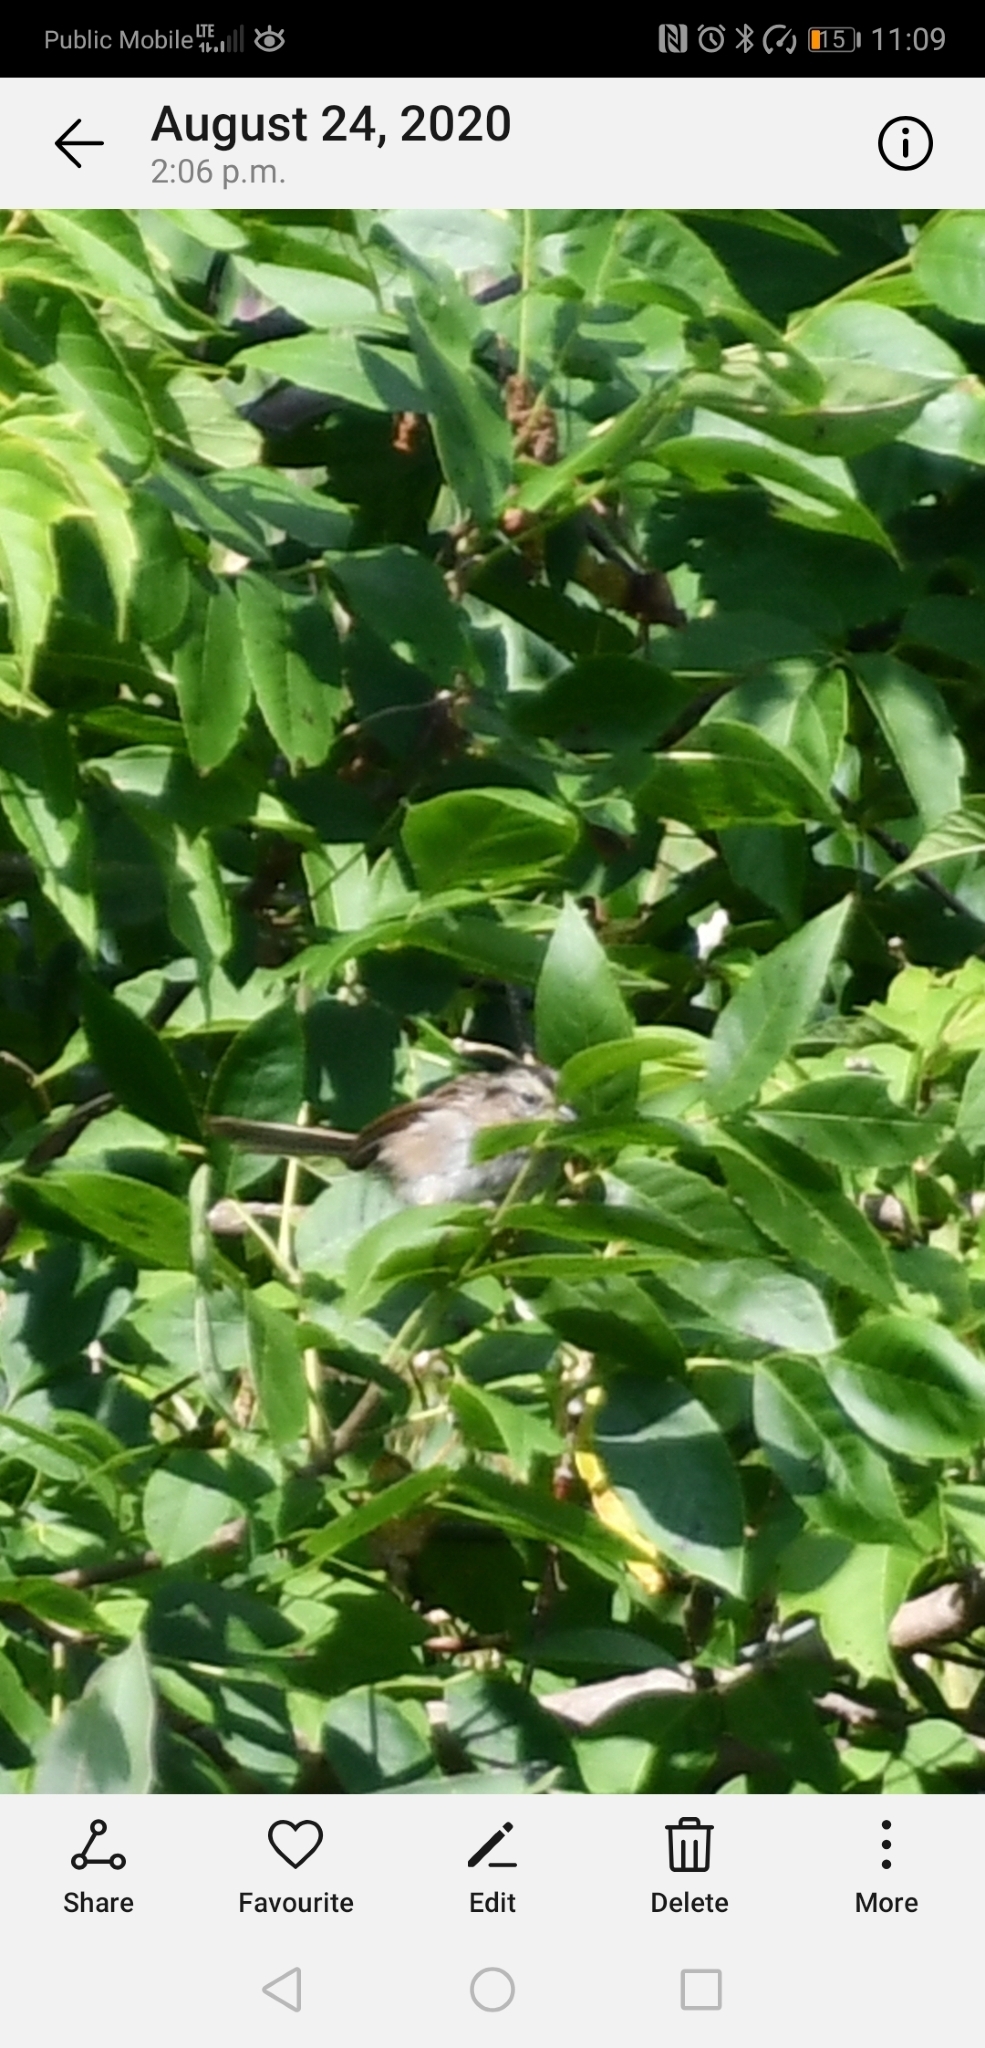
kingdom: Animalia
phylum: Chordata
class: Aves
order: Passeriformes
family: Passerellidae
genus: Melospiza
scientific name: Melospiza georgiana
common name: Swamp sparrow
